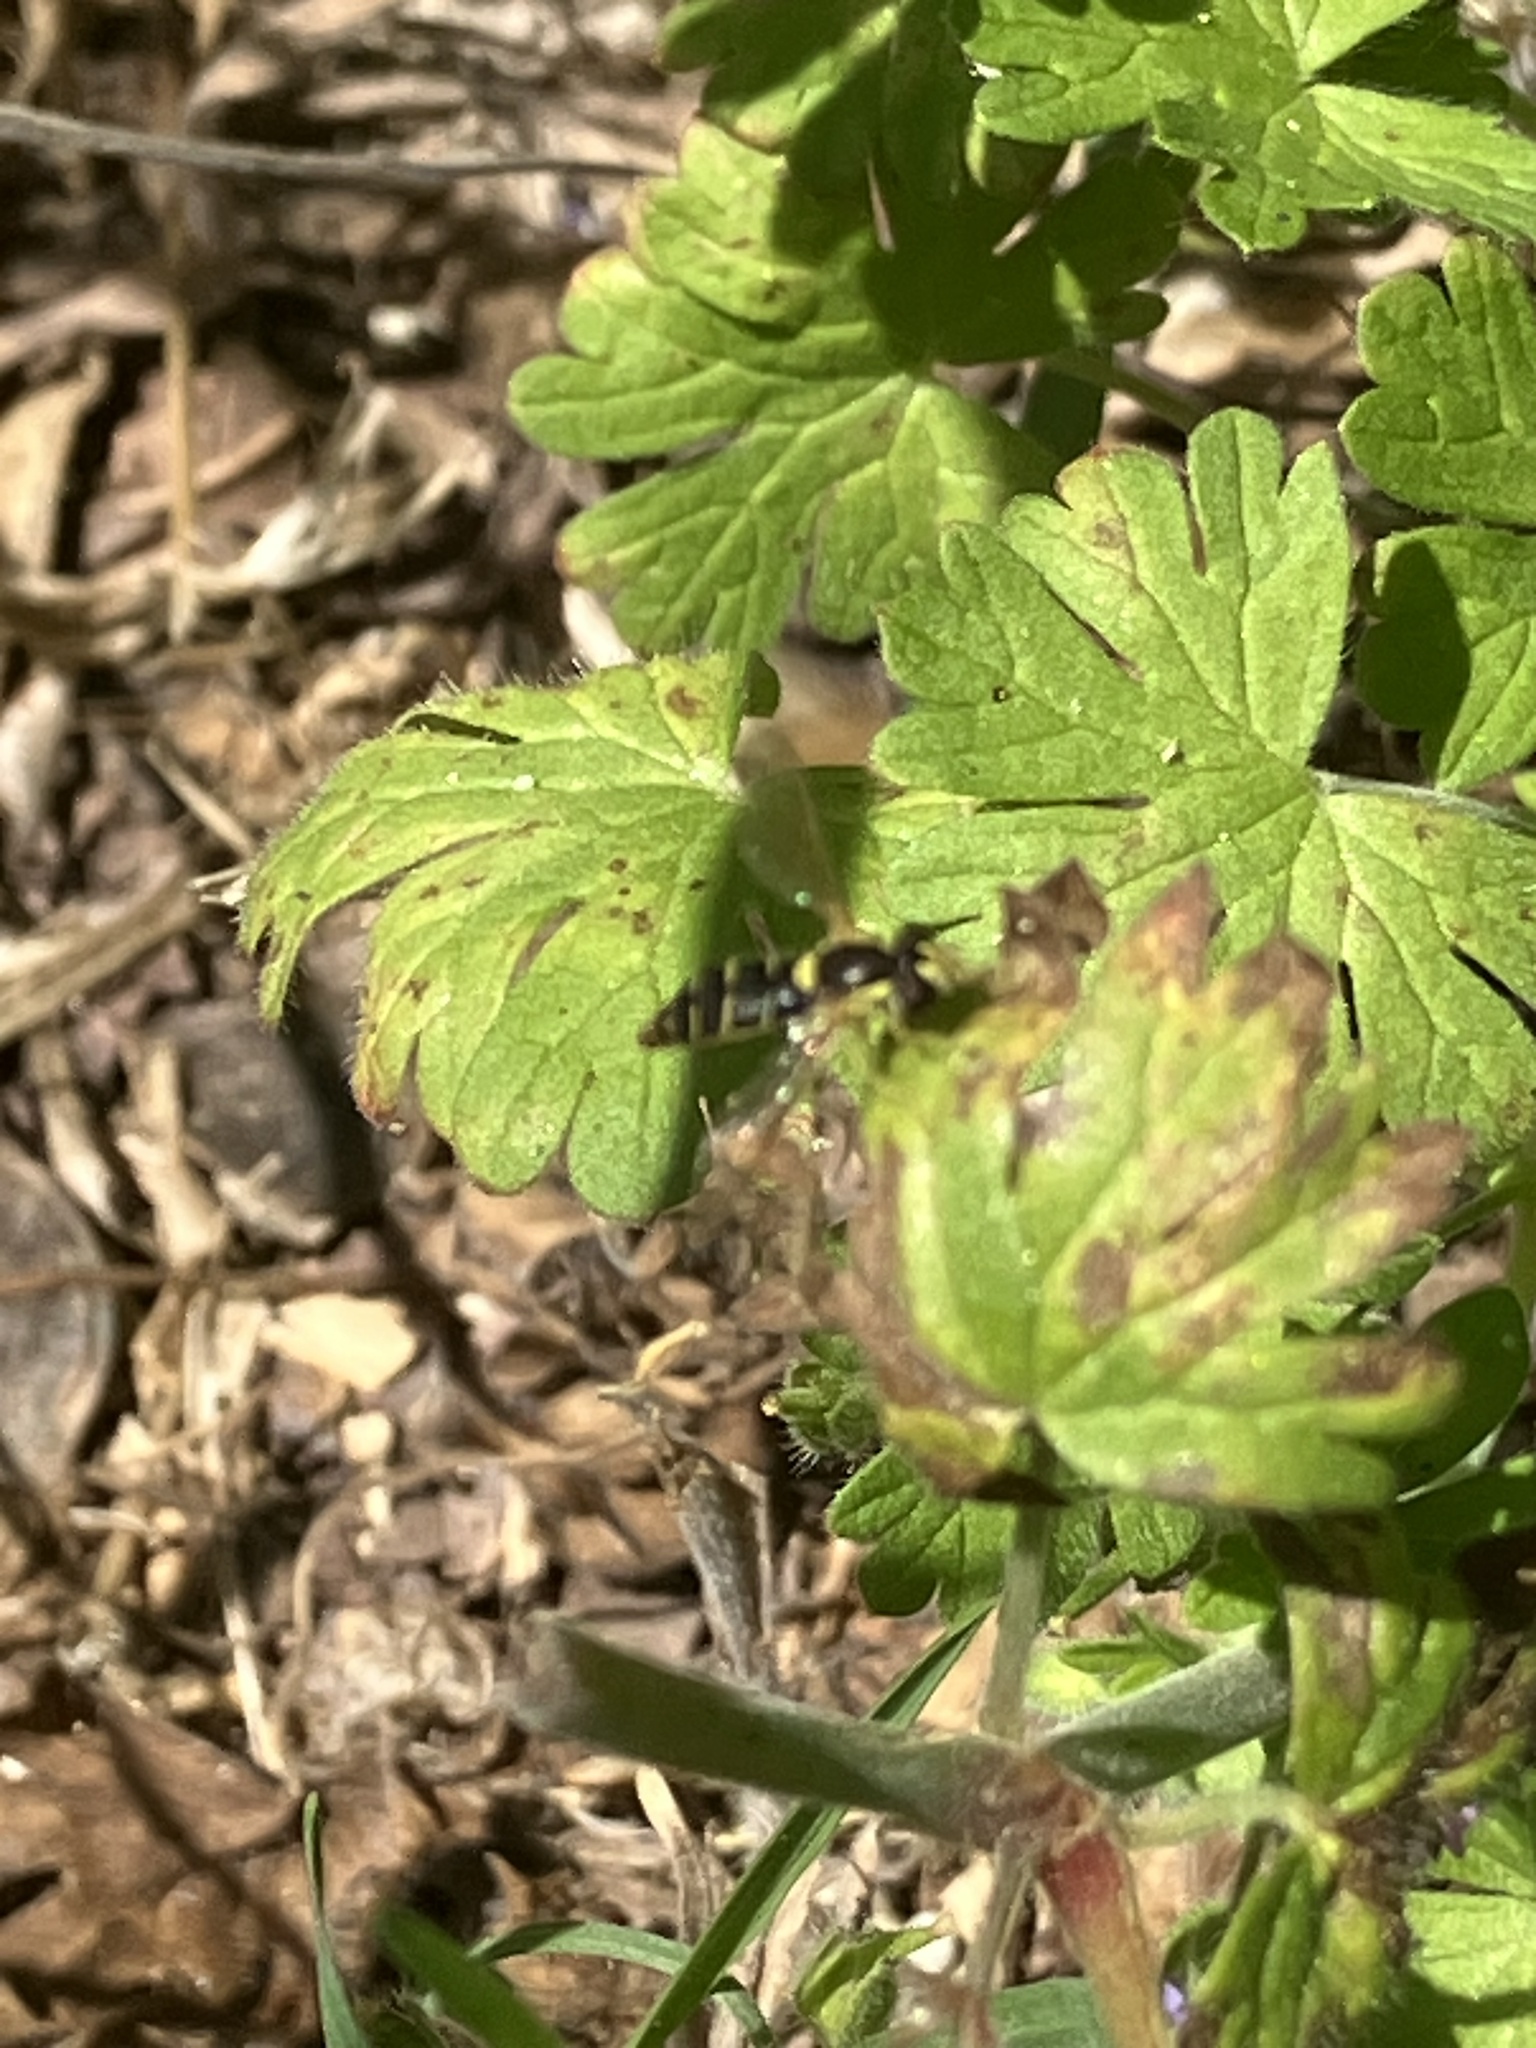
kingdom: Animalia
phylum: Arthropoda
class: Insecta
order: Diptera
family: Syrphidae
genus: Sphaerophoria
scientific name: Sphaerophoria
